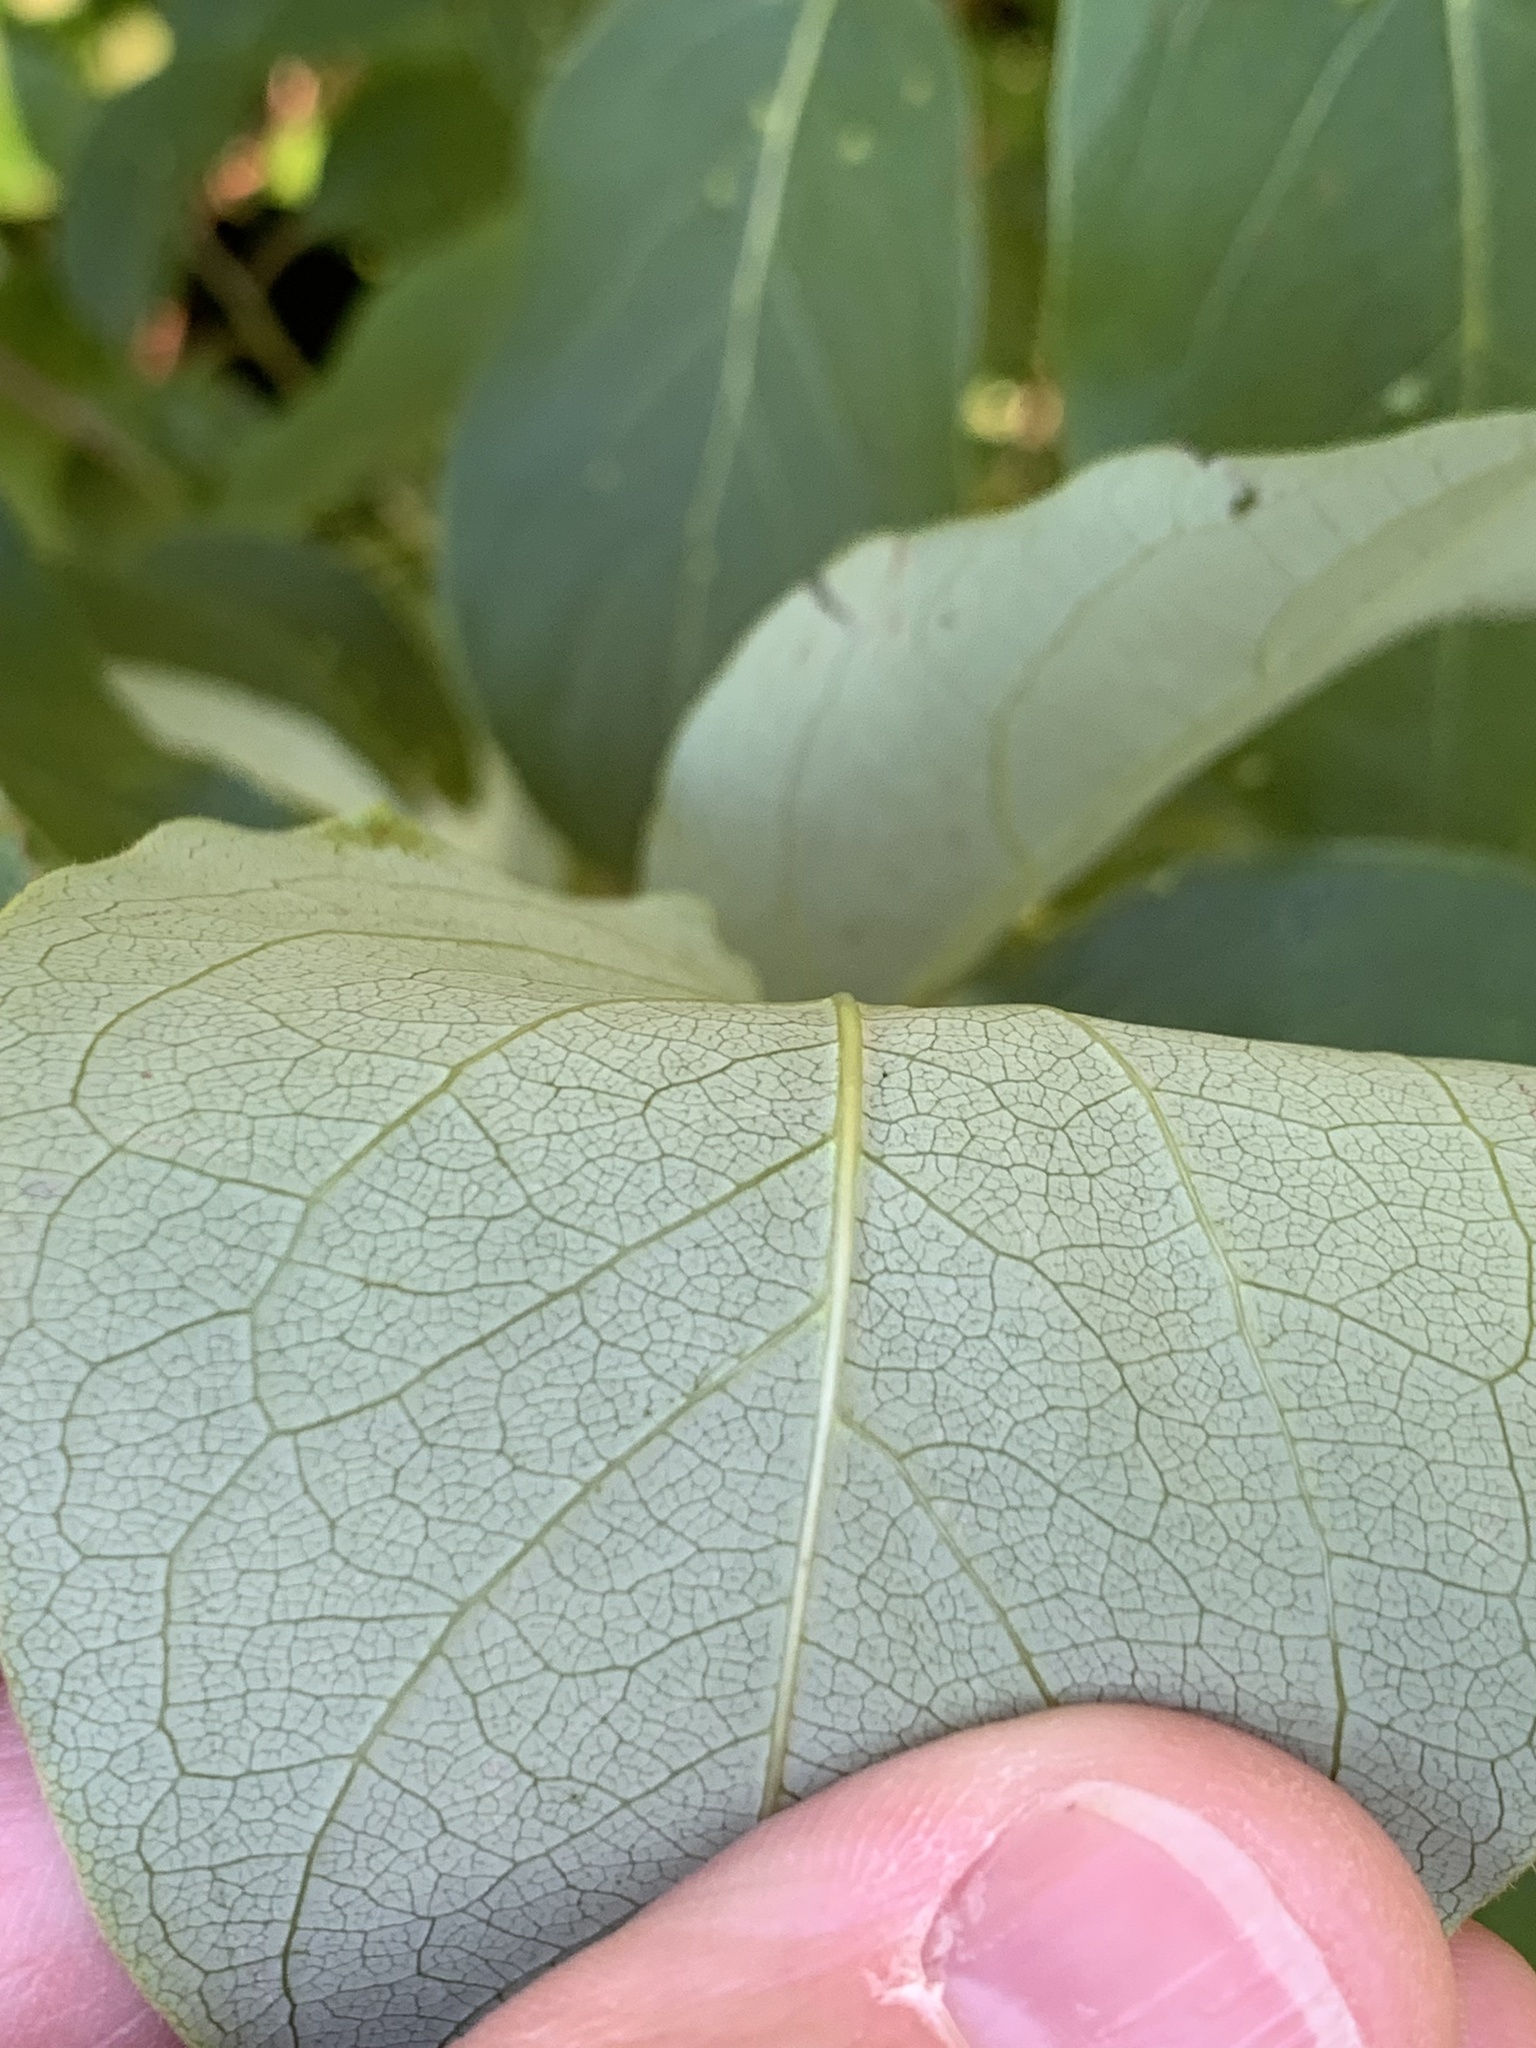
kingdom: Plantae
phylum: Tracheophyta
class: Magnoliopsida
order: Ericales
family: Ebenaceae
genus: Diospyros
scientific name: Diospyros virginiana
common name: Persimmon
